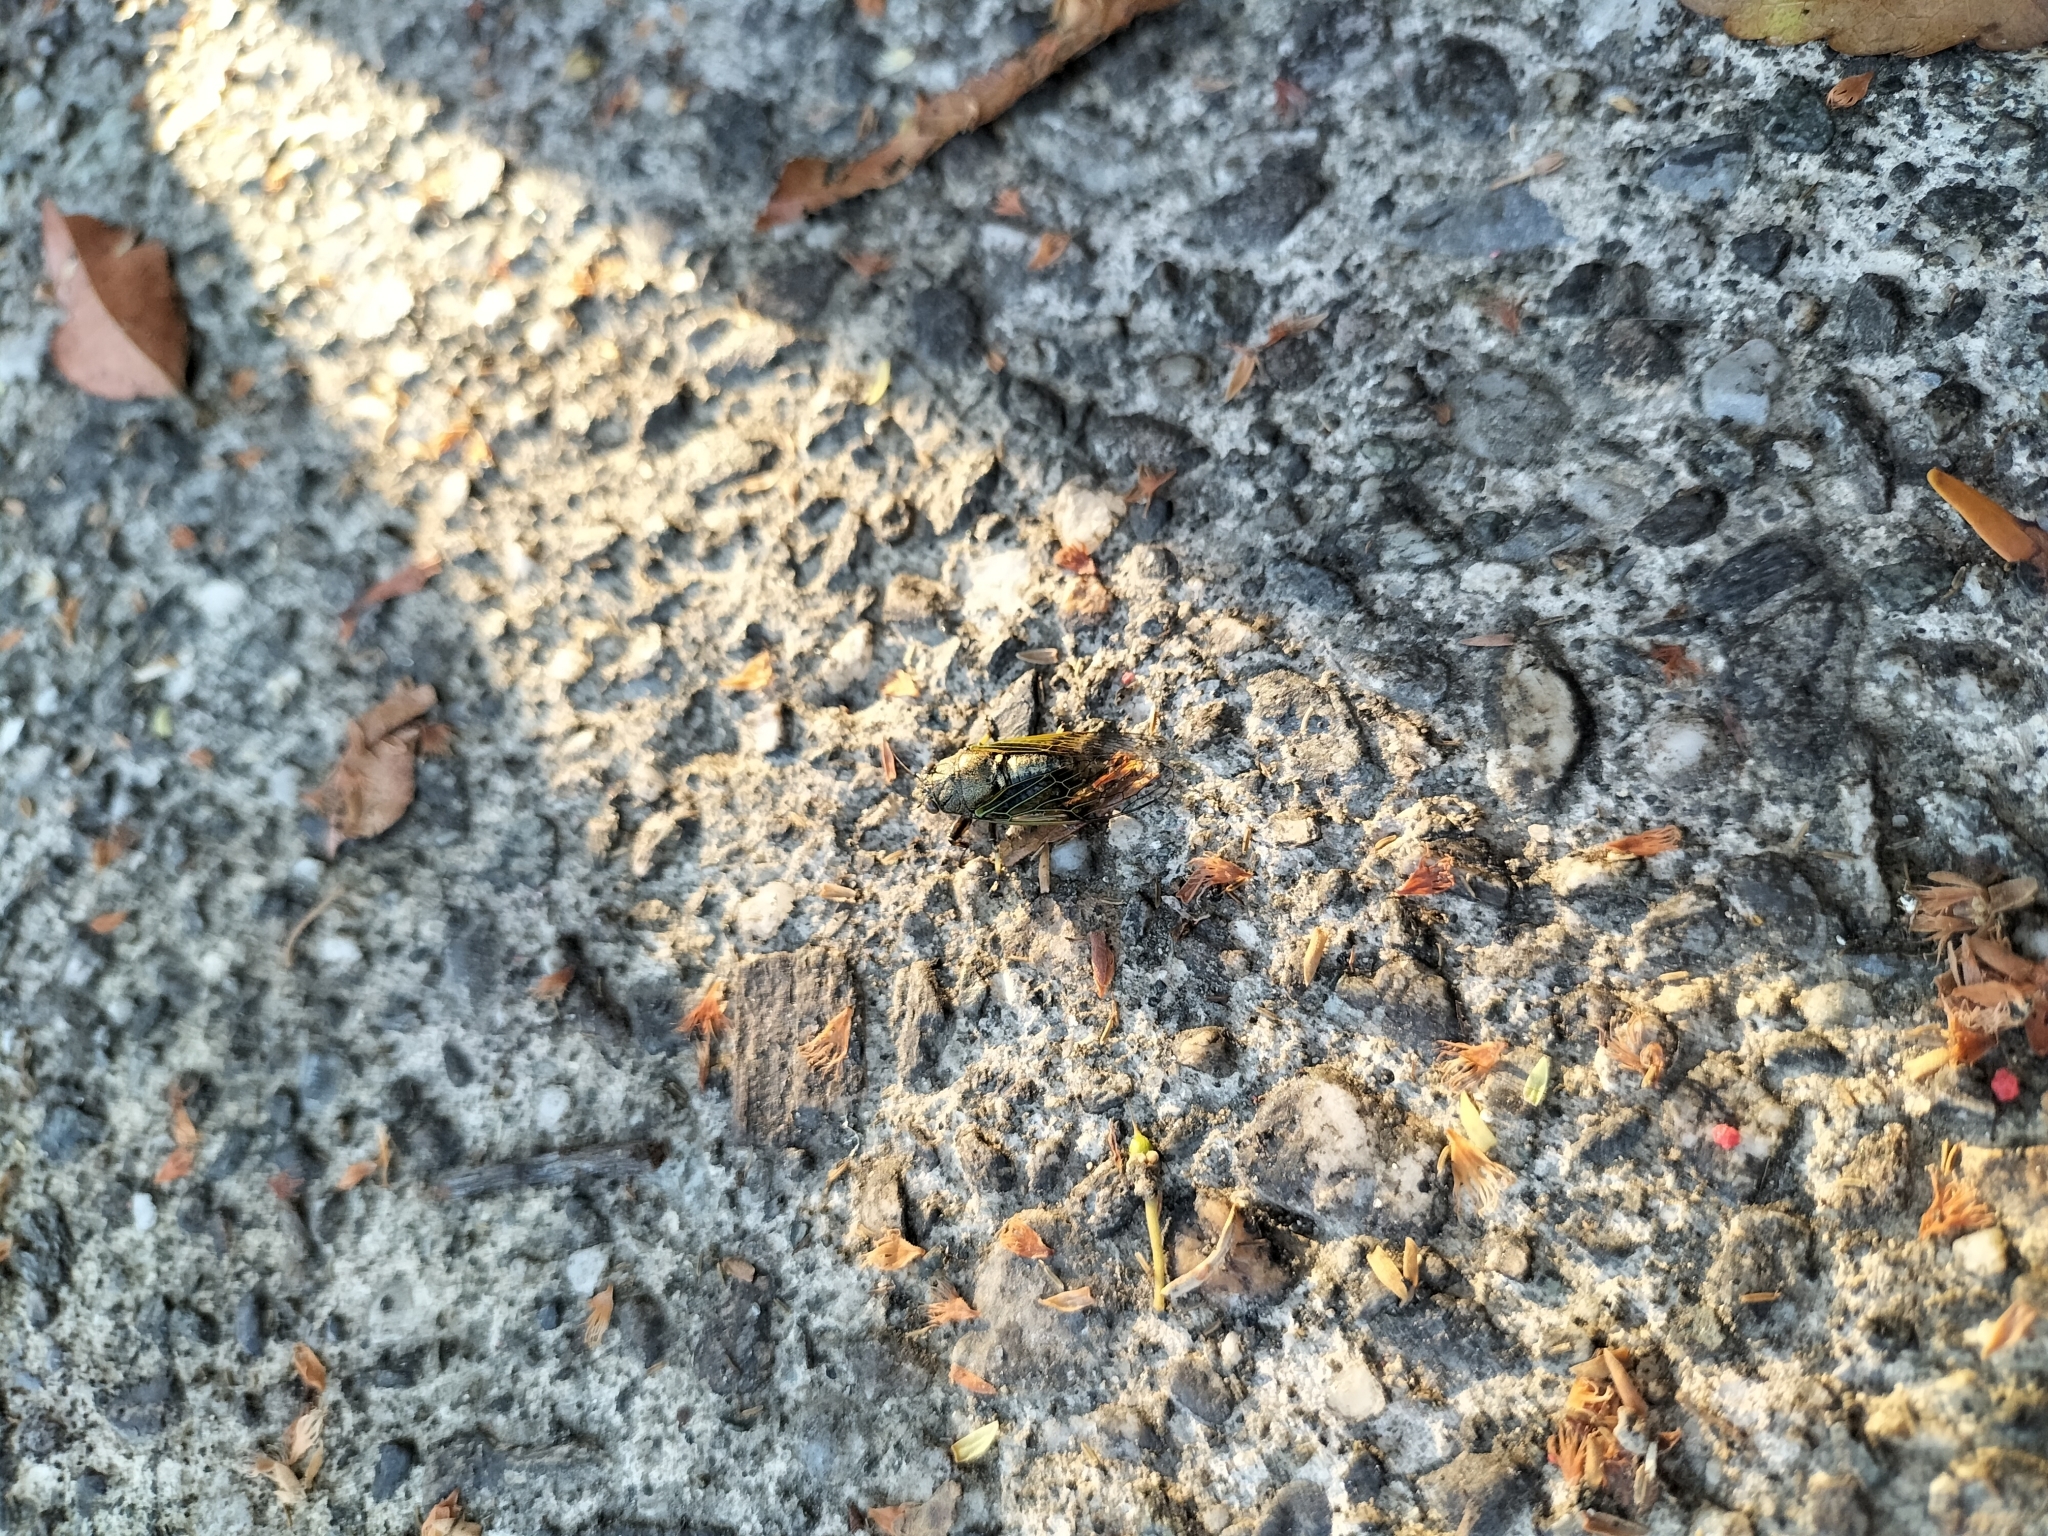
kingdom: Animalia
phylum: Arthropoda
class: Insecta
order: Hemiptera
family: Cicadidae
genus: Mogannia
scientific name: Mogannia formosana
